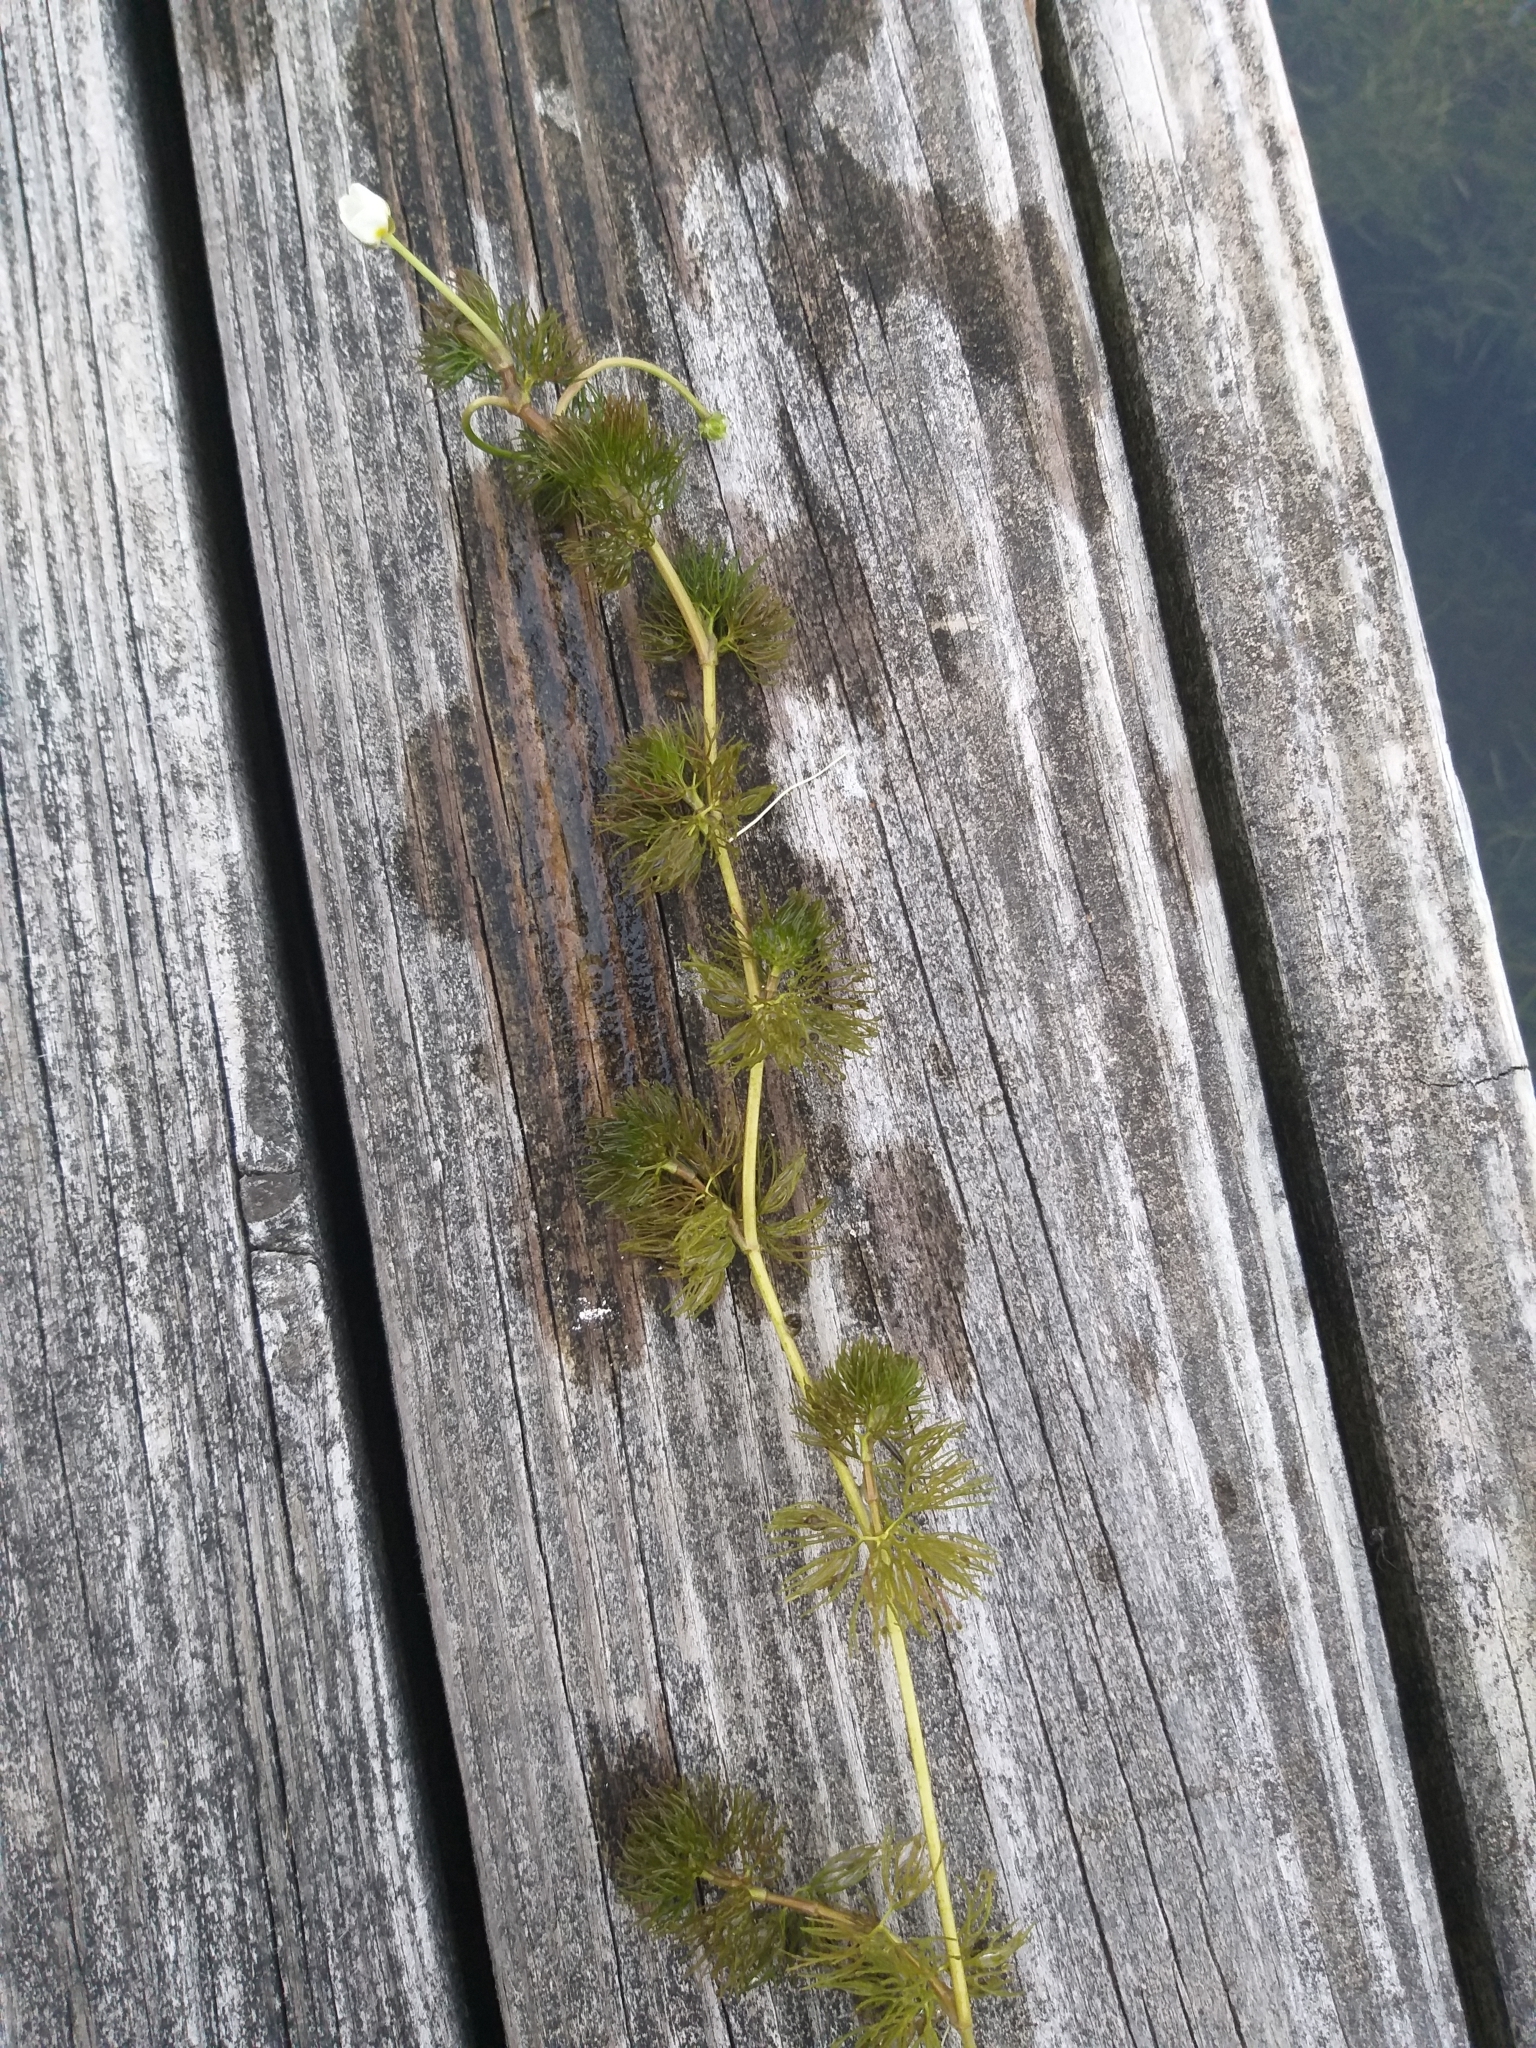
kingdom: Plantae
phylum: Tracheophyta
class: Magnoliopsida
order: Ranunculales
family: Ranunculaceae
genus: Ranunculus
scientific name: Ranunculus aquatilis
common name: Common water-crowfoot
